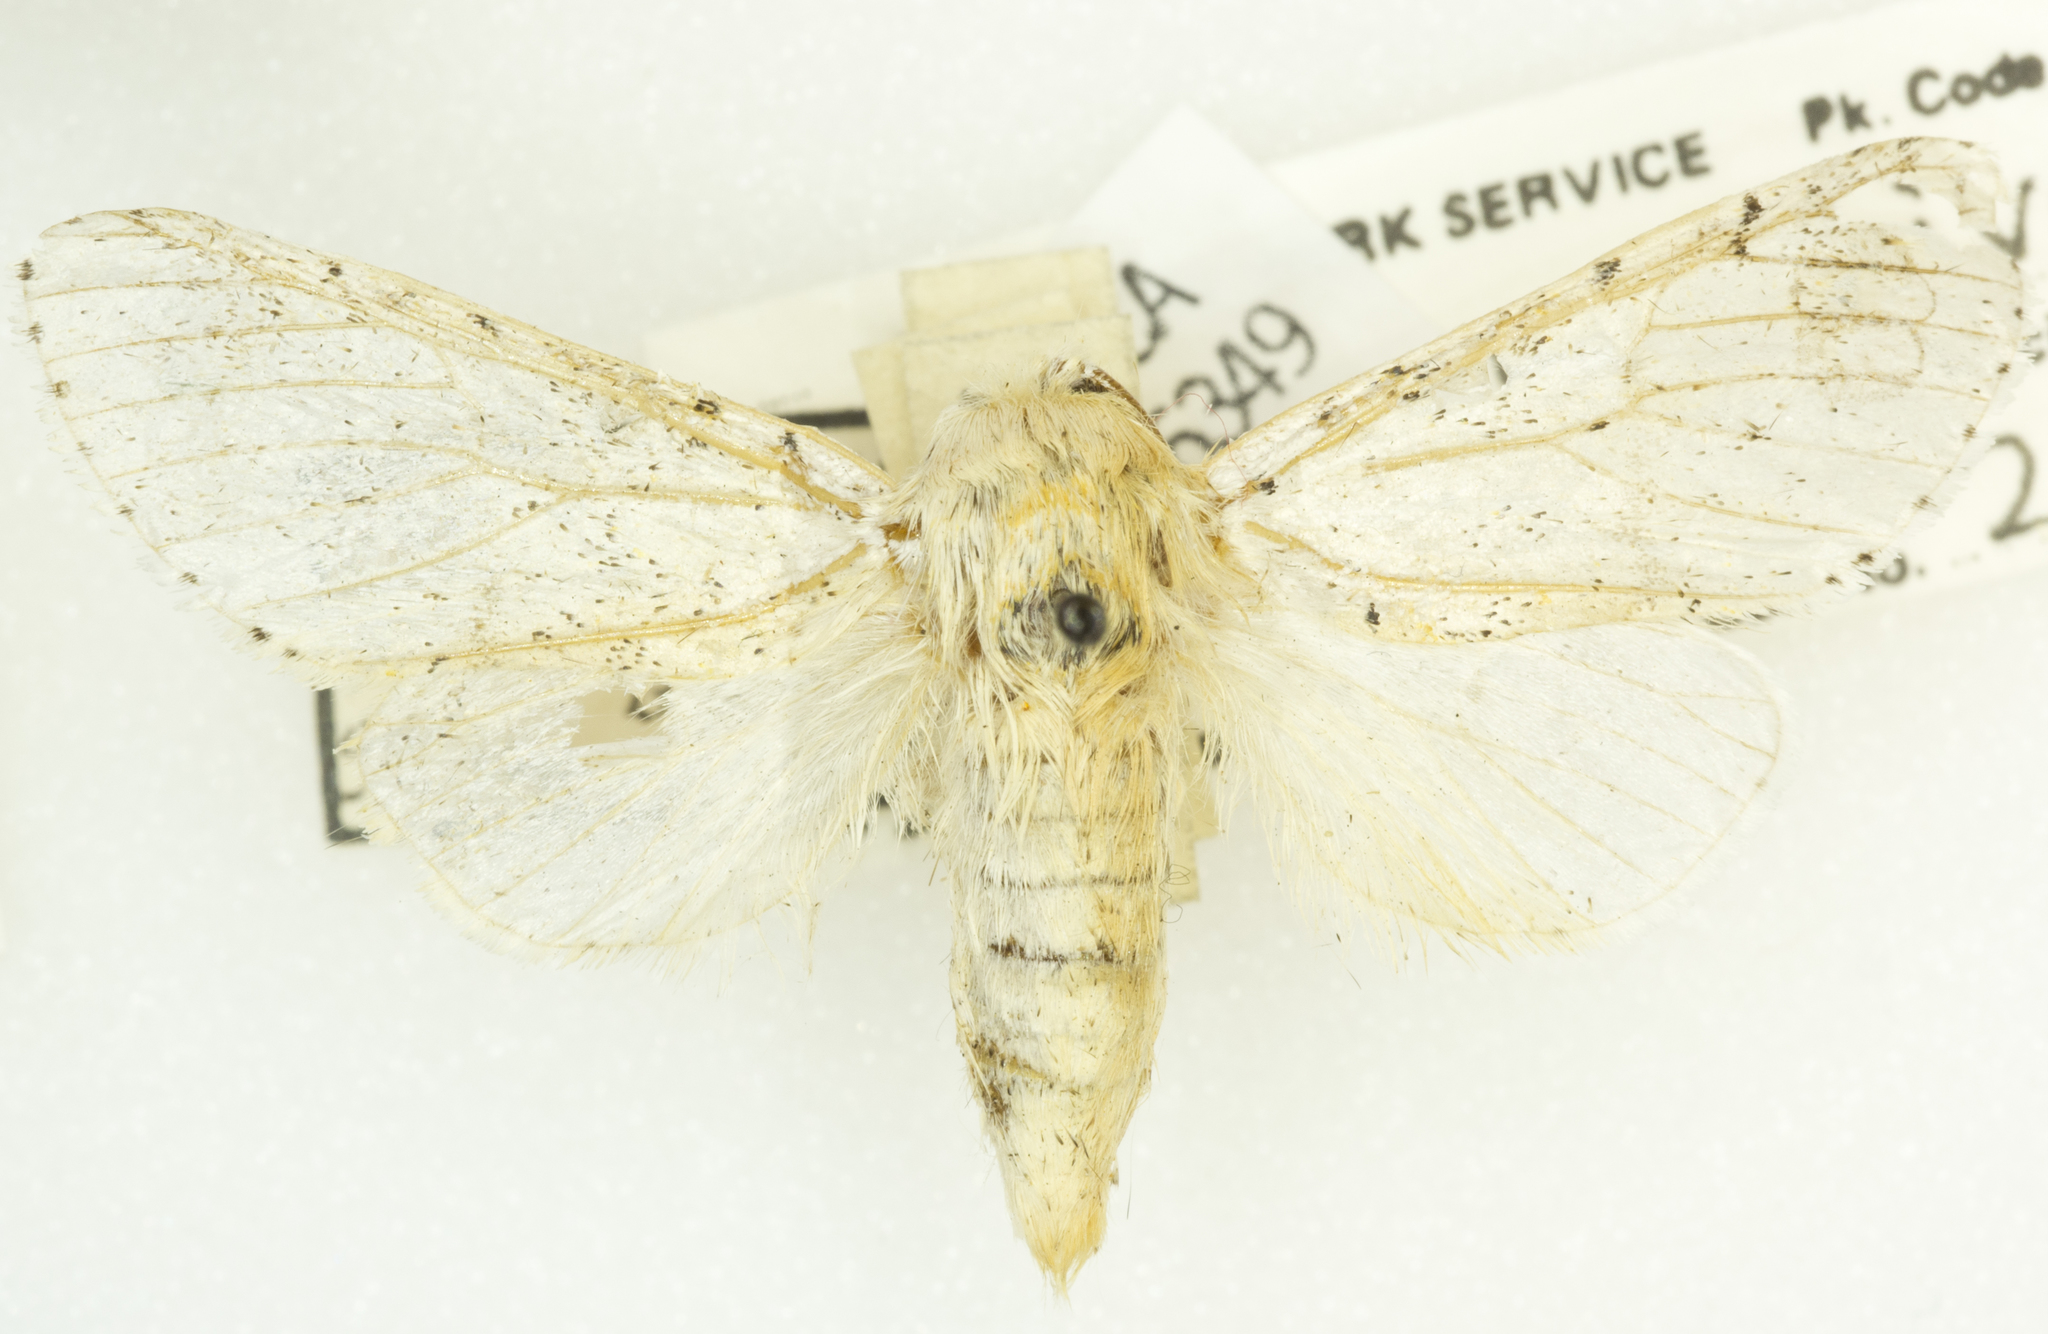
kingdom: Animalia
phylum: Arthropoda
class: Insecta
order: Lepidoptera
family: Notodontidae
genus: Furcula
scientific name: Furcula nivea
